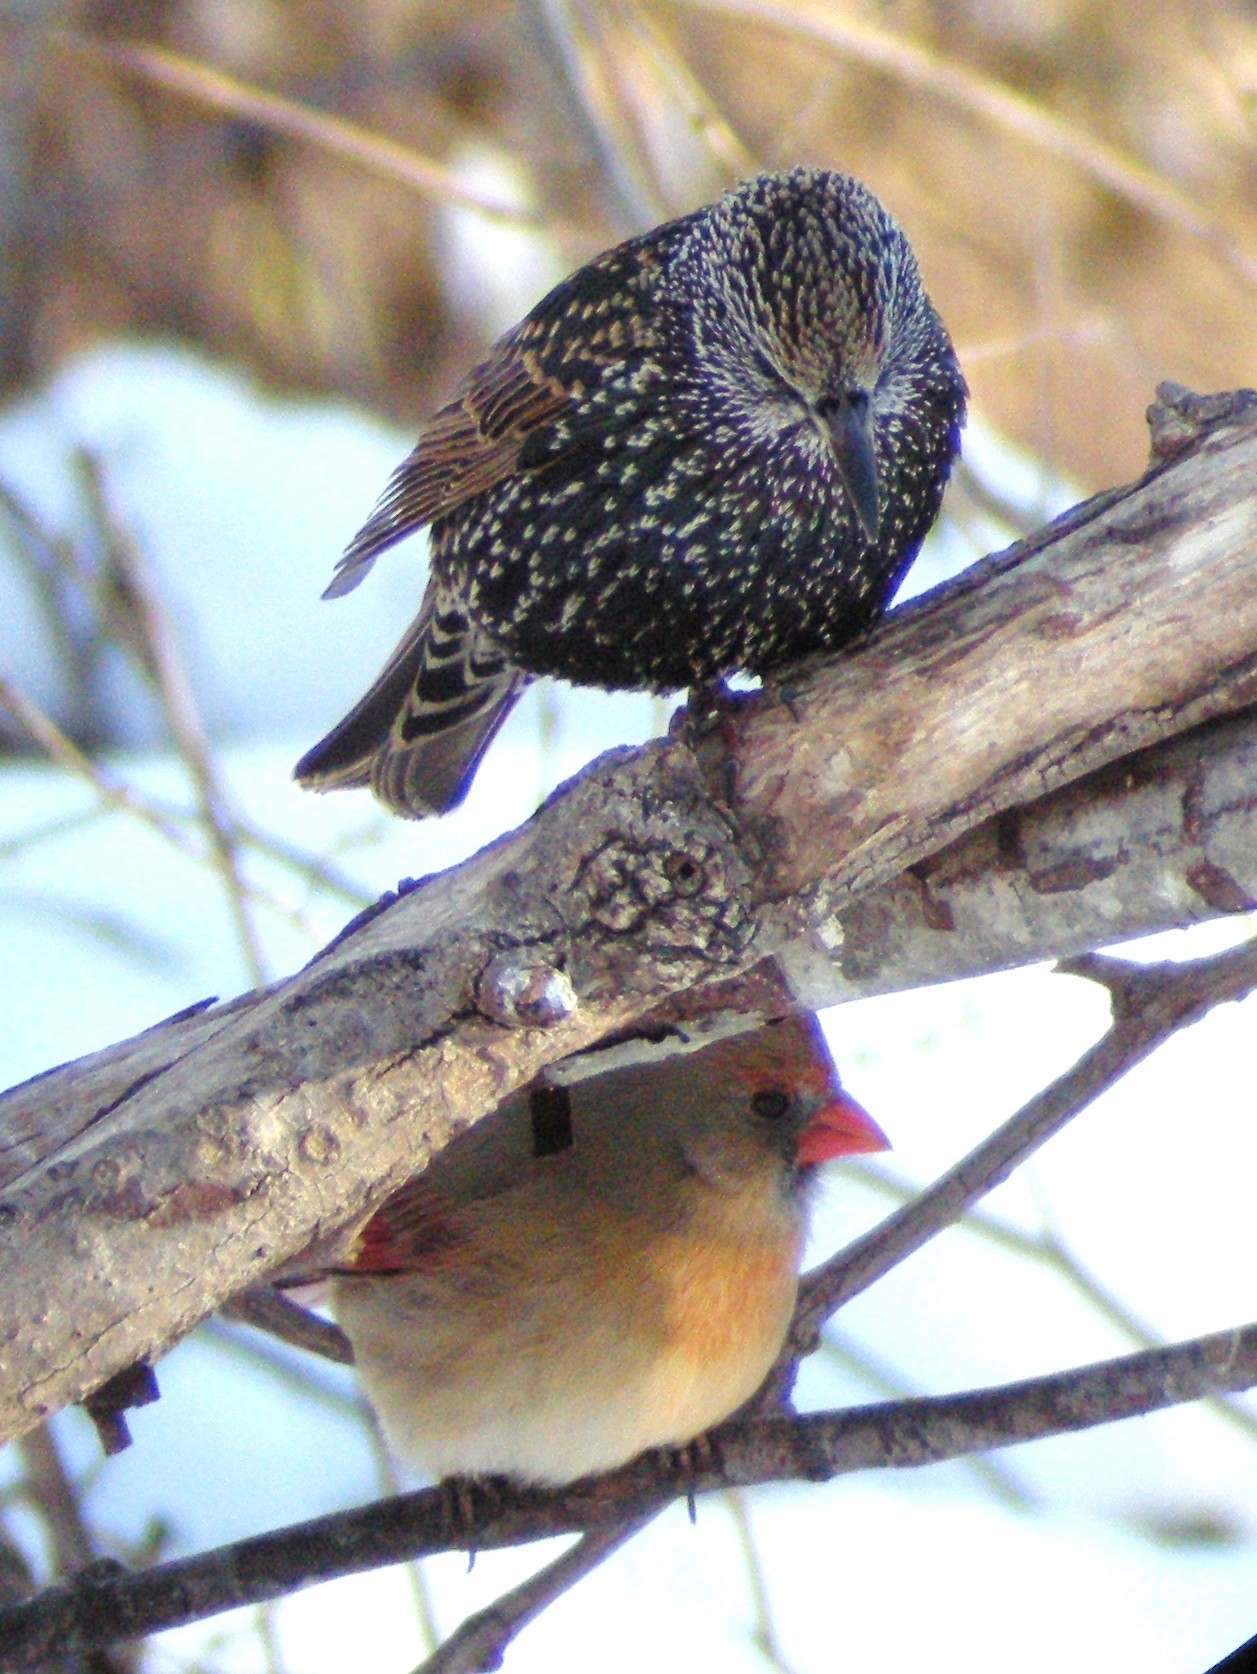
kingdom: Animalia
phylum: Chordata
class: Aves
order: Passeriformes
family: Sturnidae
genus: Sturnus
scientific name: Sturnus vulgaris
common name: Common starling
